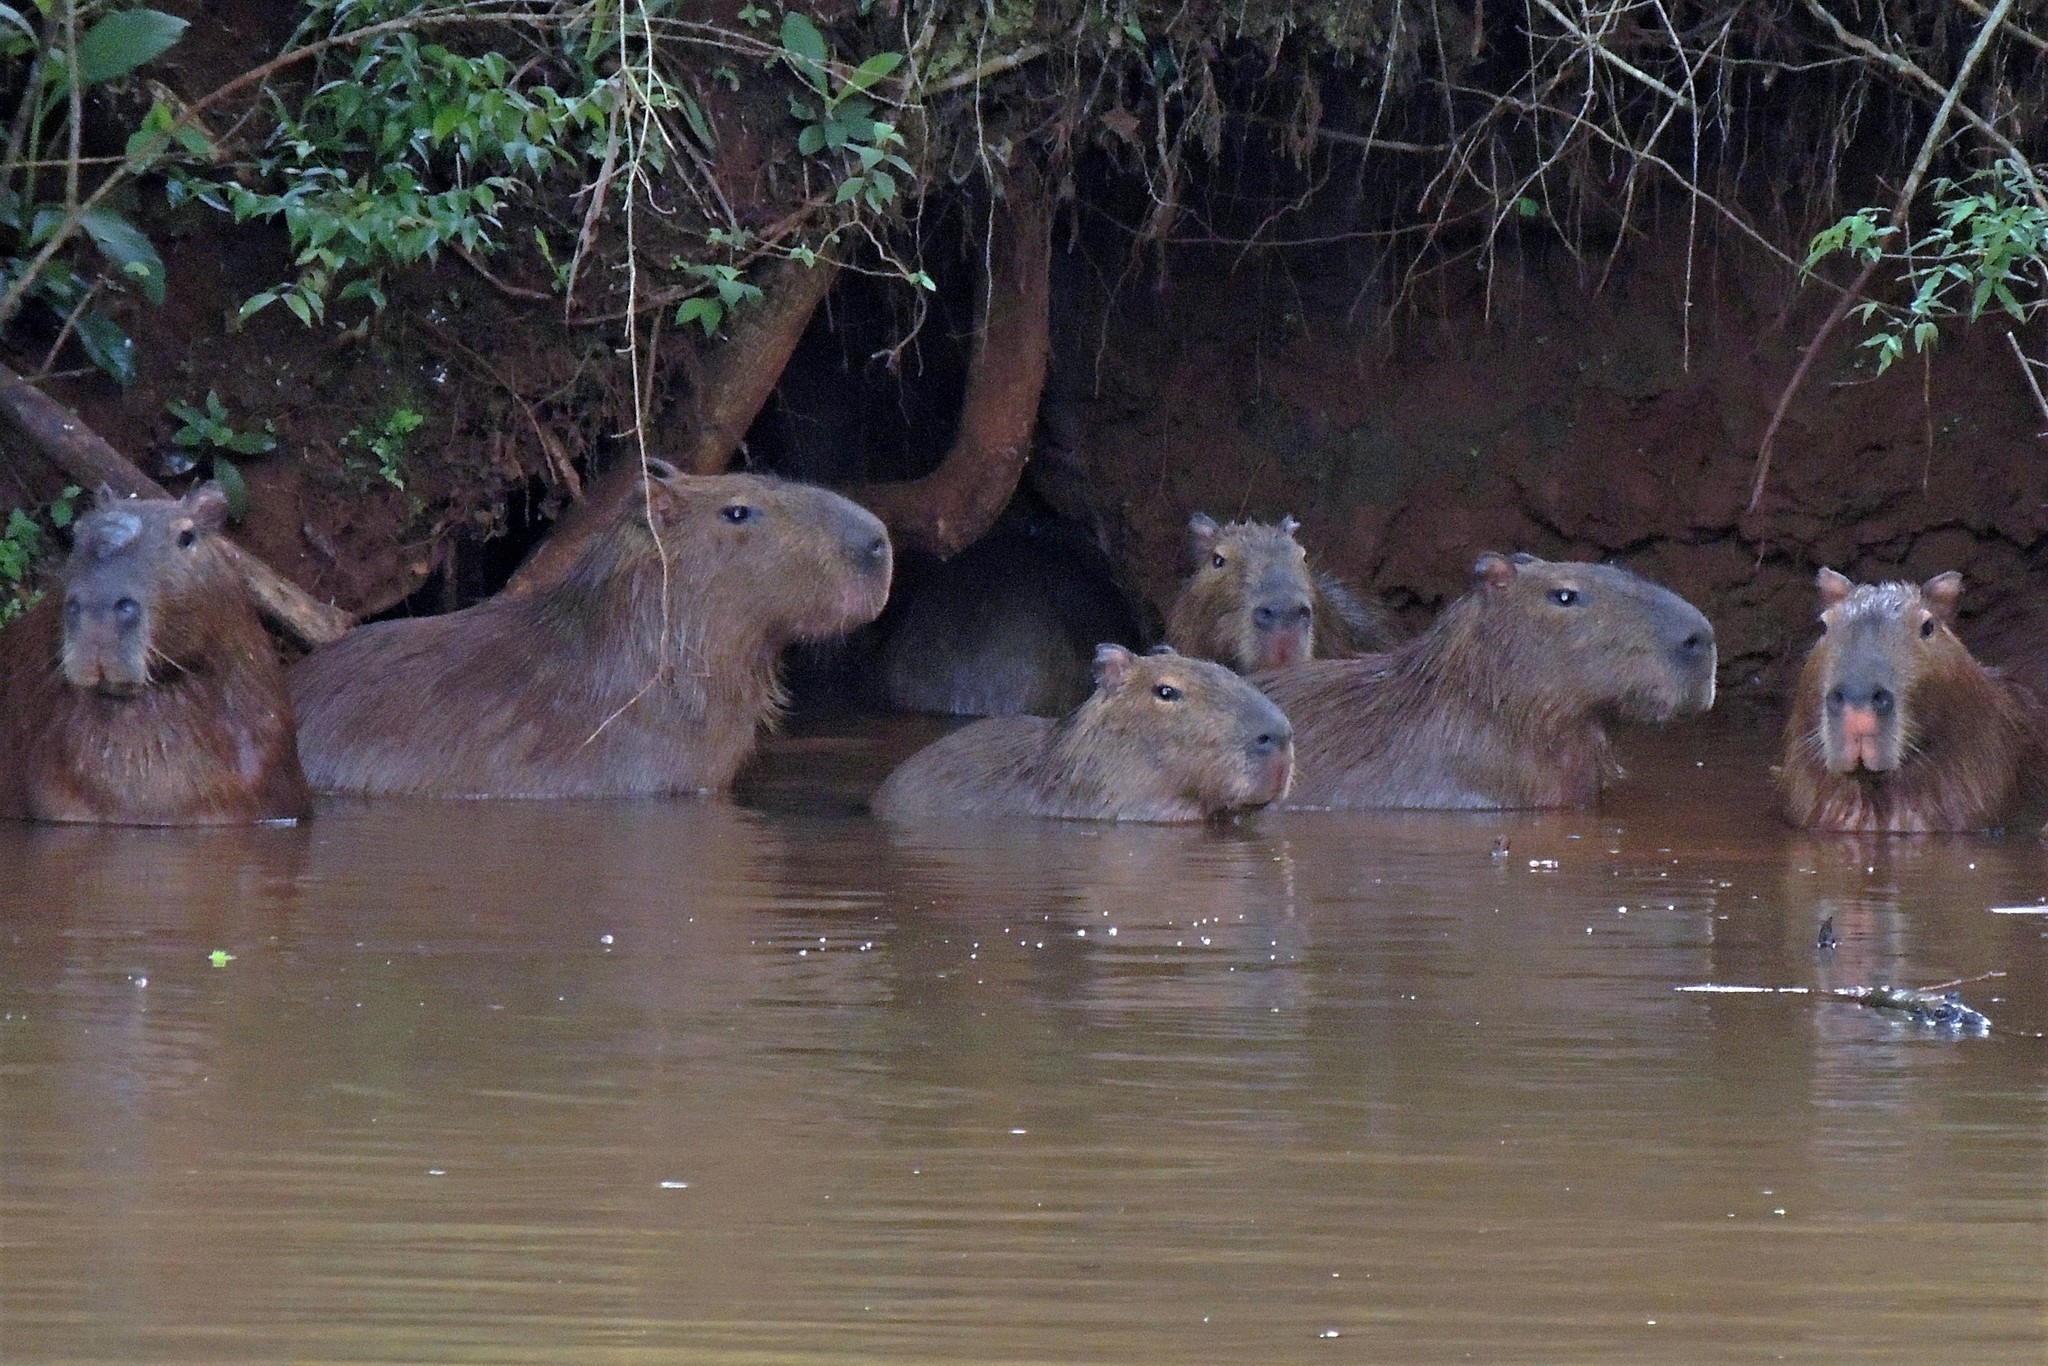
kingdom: Animalia
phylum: Chordata
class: Mammalia
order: Rodentia
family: Caviidae
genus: Hydrochoerus
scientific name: Hydrochoerus hydrochaeris
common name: Capybara
